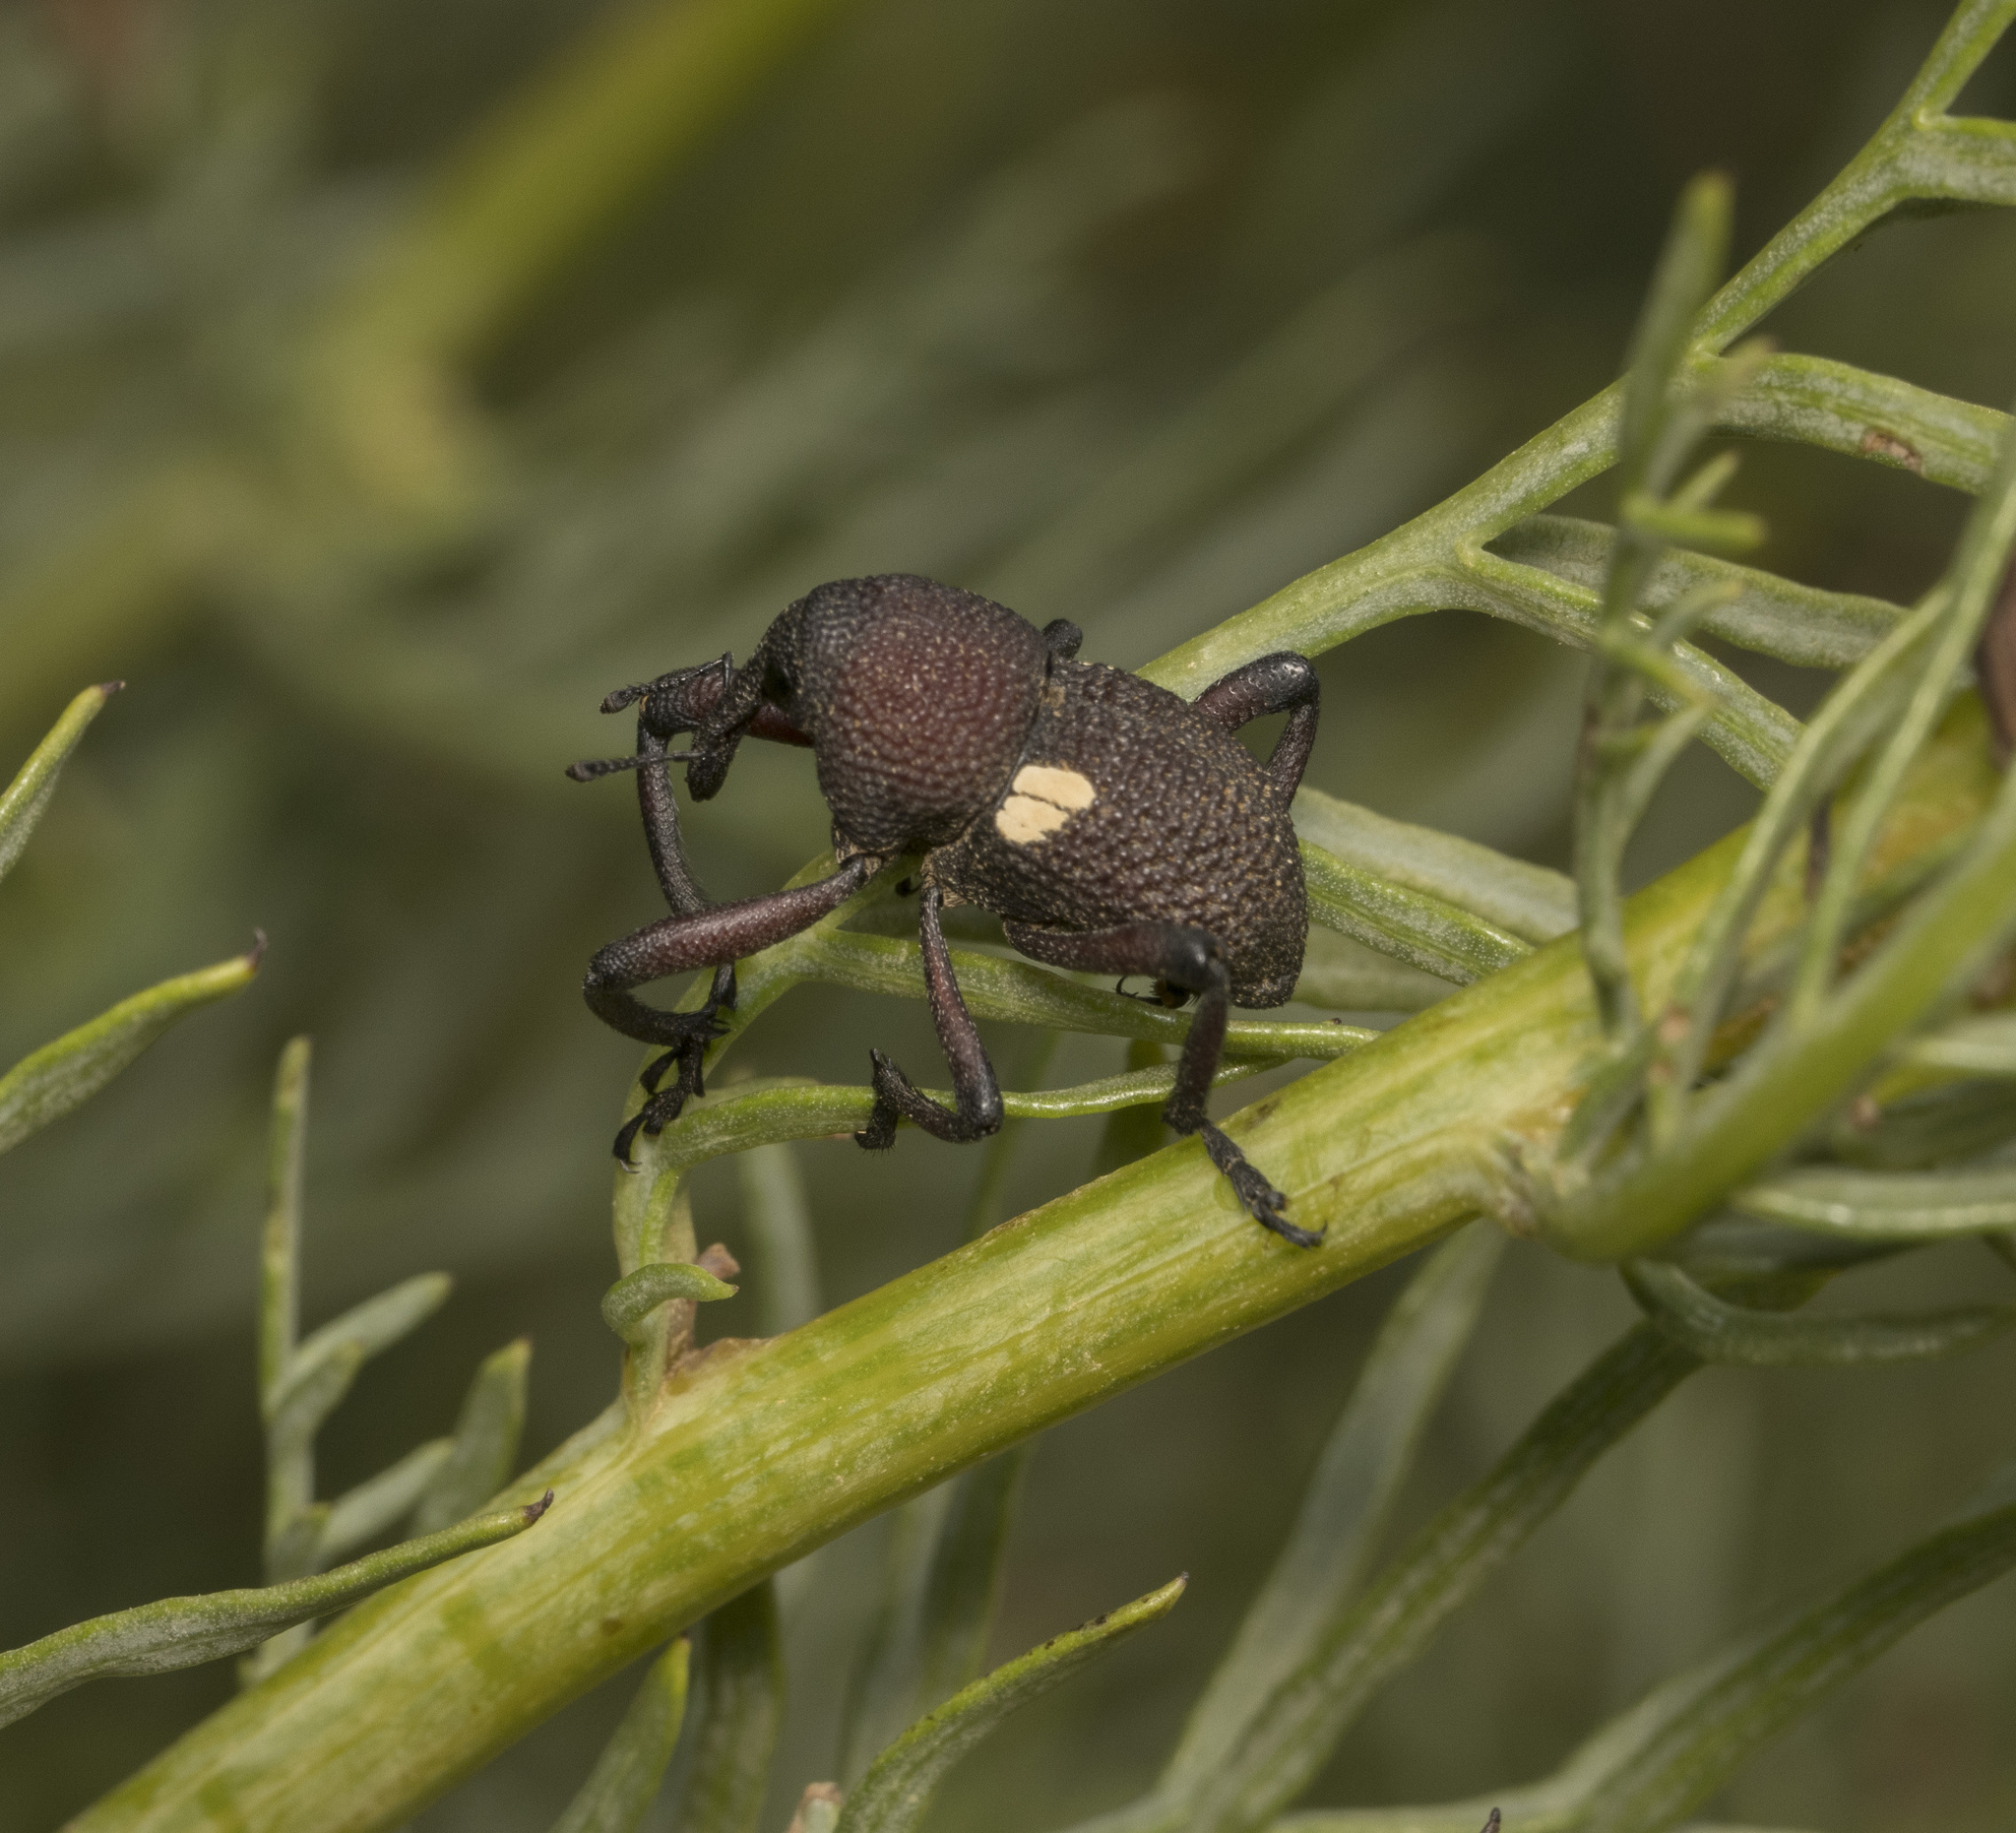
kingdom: Animalia
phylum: Arthropoda
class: Insecta
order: Coleoptera
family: Curculionidae
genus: Rhyephenes
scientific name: Rhyephenes gayi
